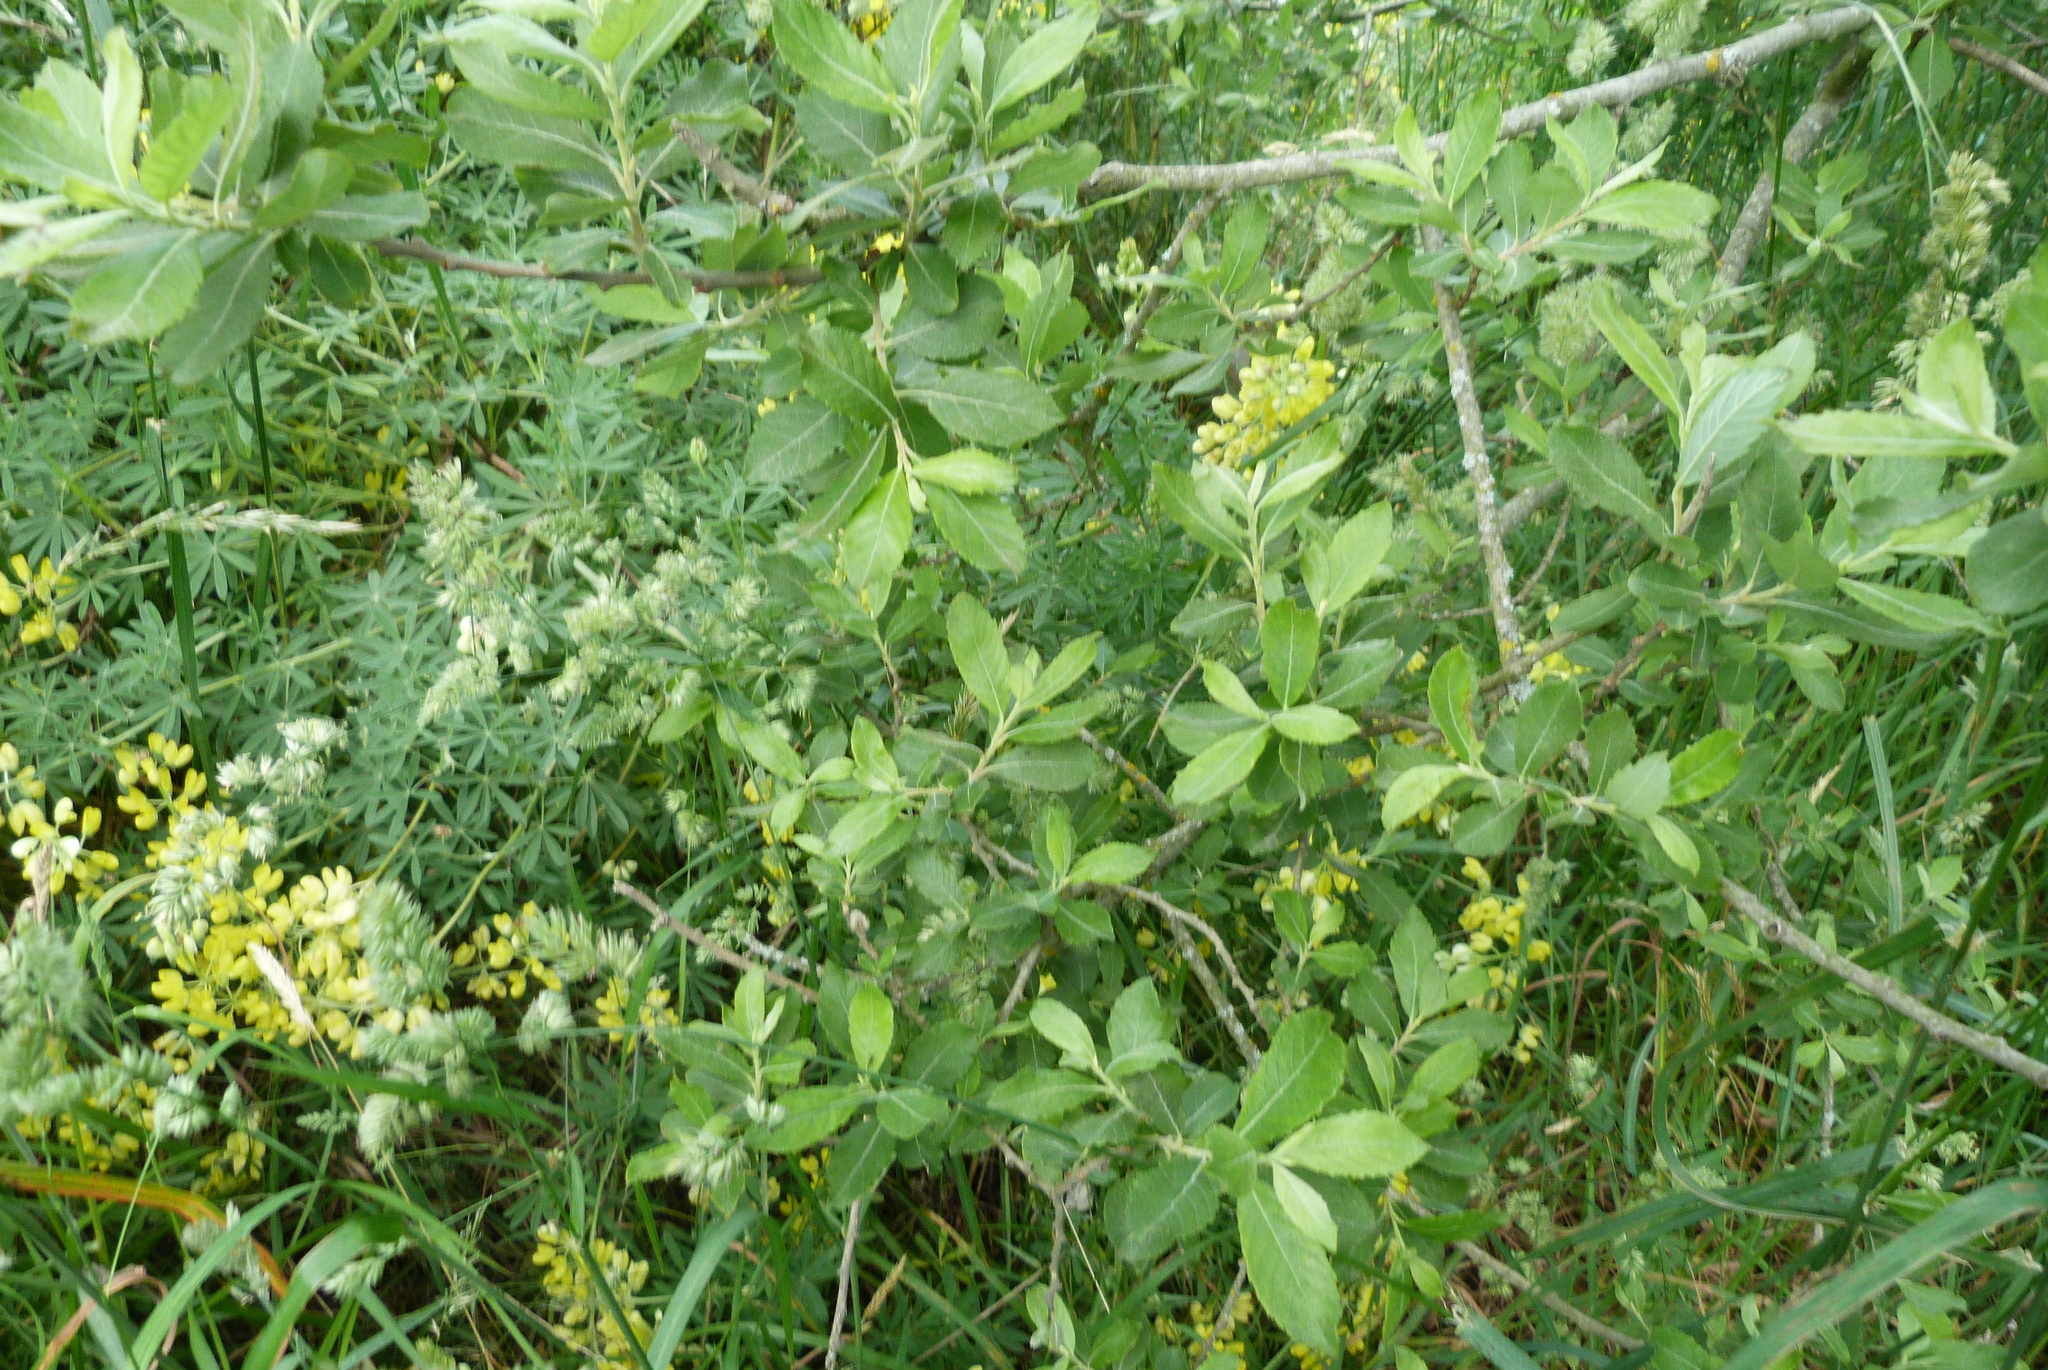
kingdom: Plantae
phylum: Tracheophyta
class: Magnoliopsida
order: Malpighiales
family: Salicaceae
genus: Salix
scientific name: Salix cinerea
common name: Common sallow
